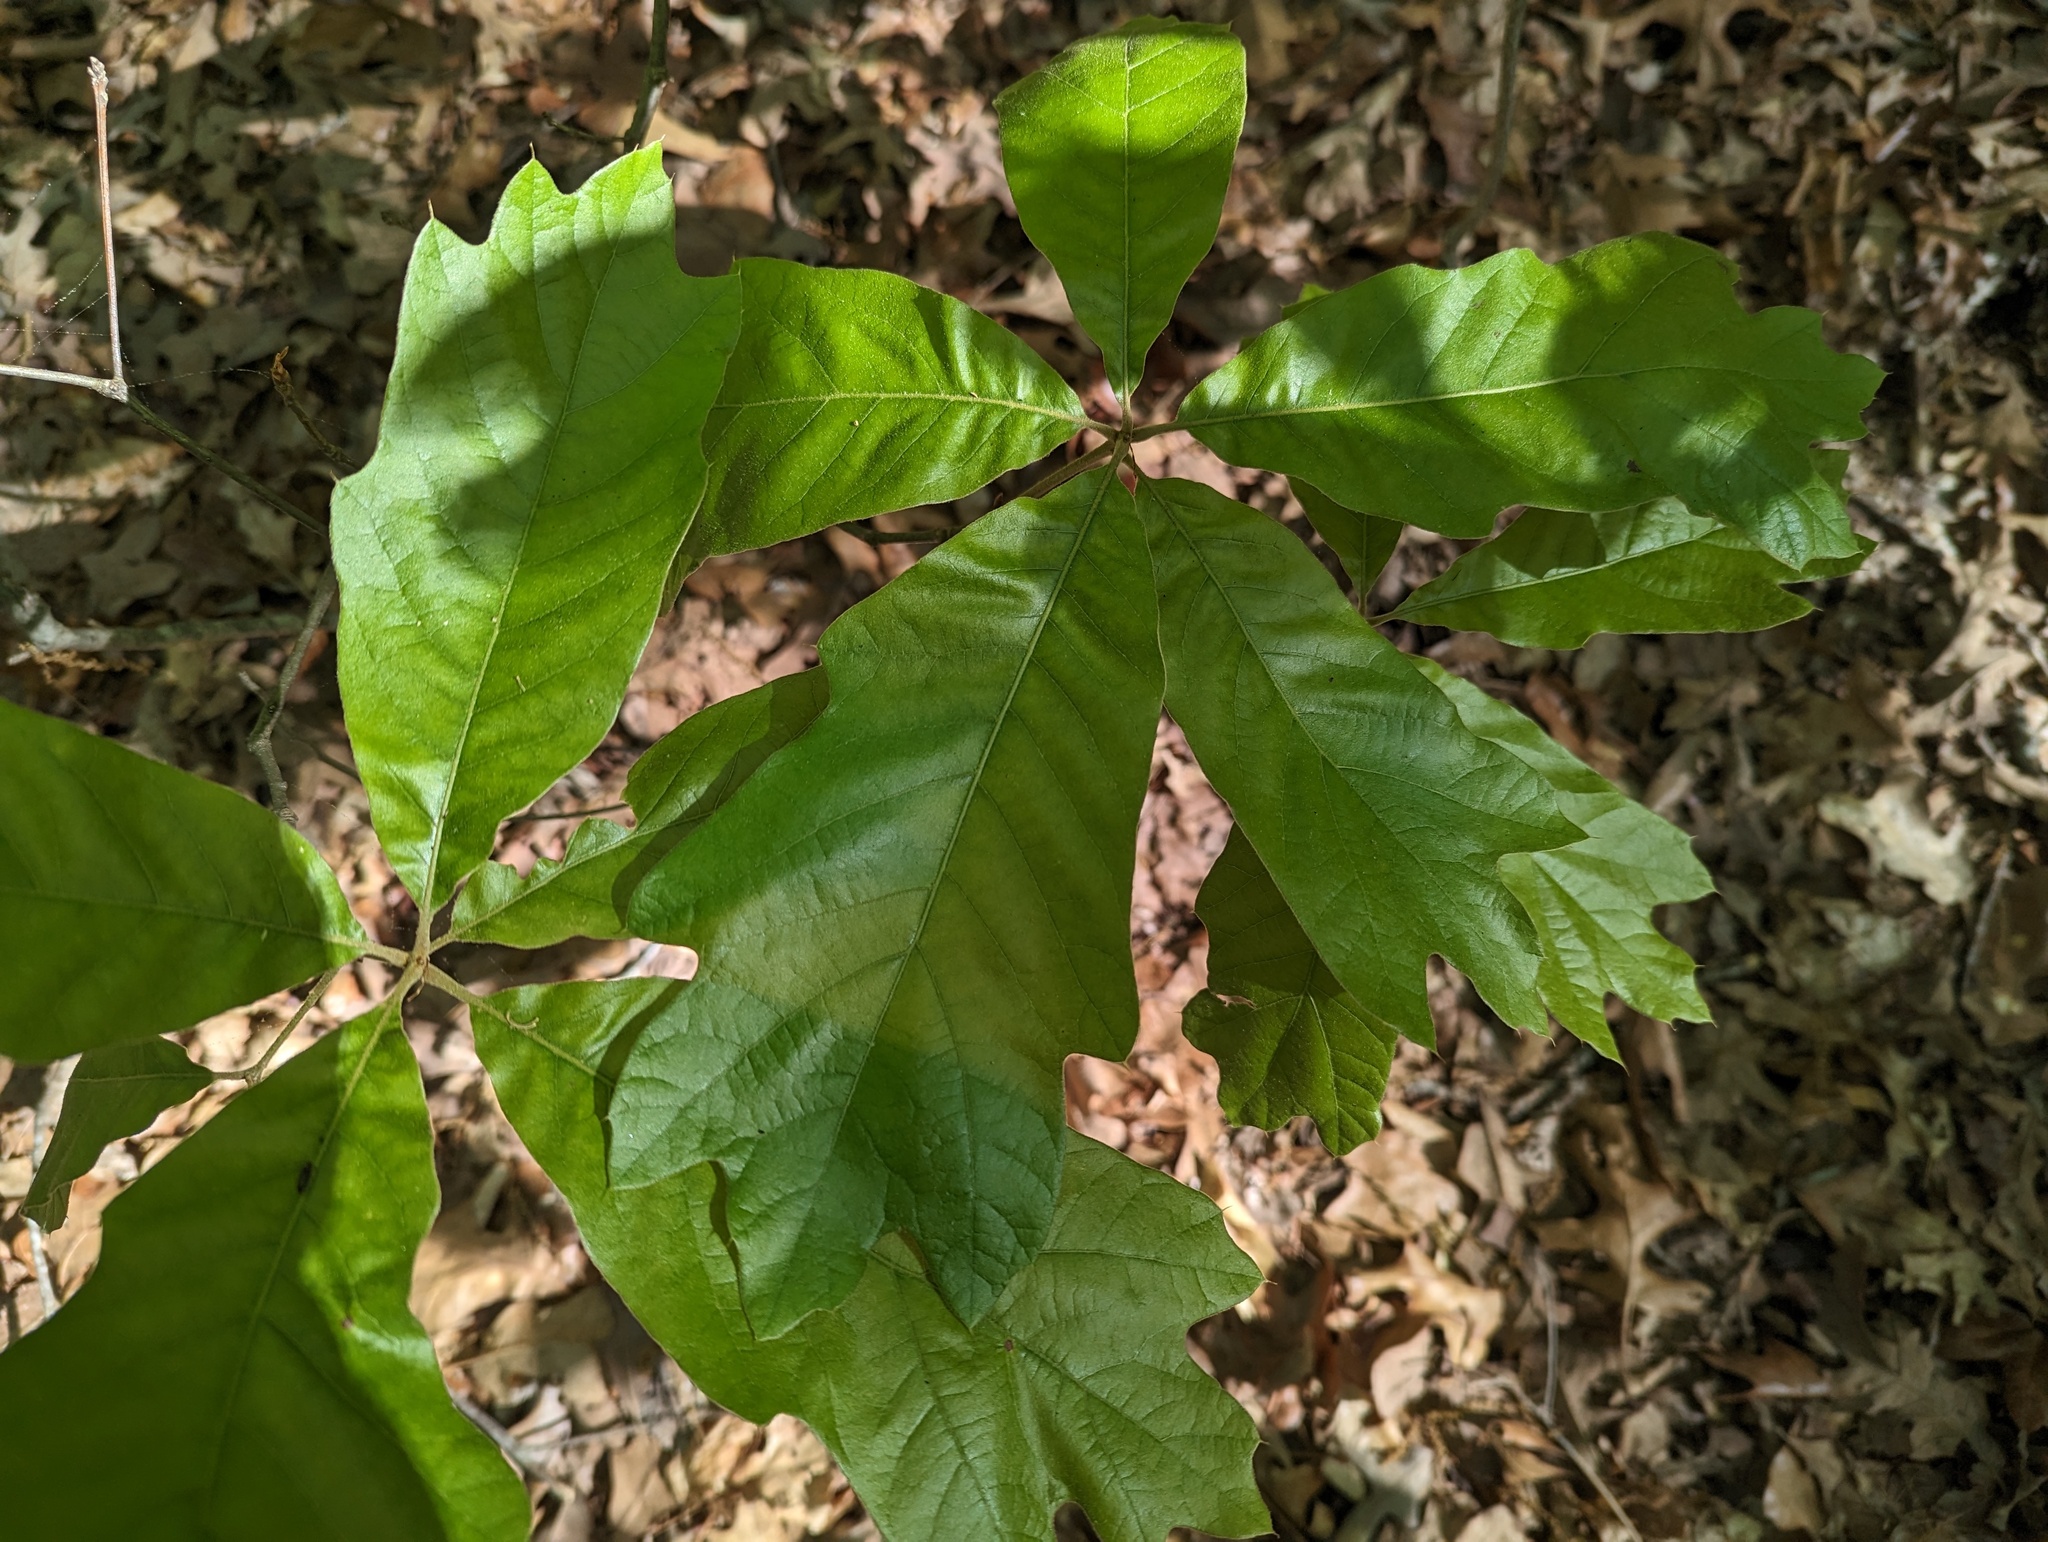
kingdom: Plantae
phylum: Tracheophyta
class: Magnoliopsida
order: Fagales
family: Fagaceae
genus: Quercus
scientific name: Quercus marilandica
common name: Blackjack oak
